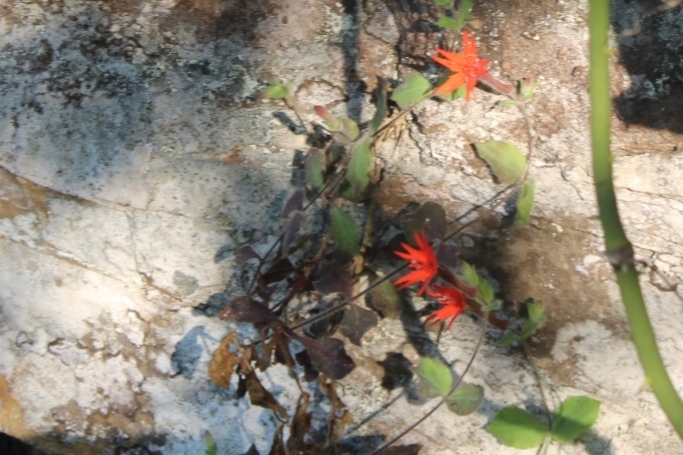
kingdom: Plantae
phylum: Tracheophyta
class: Magnoliopsida
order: Caryophyllales
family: Caryophyllaceae
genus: Silene
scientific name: Silene rotundifolia
